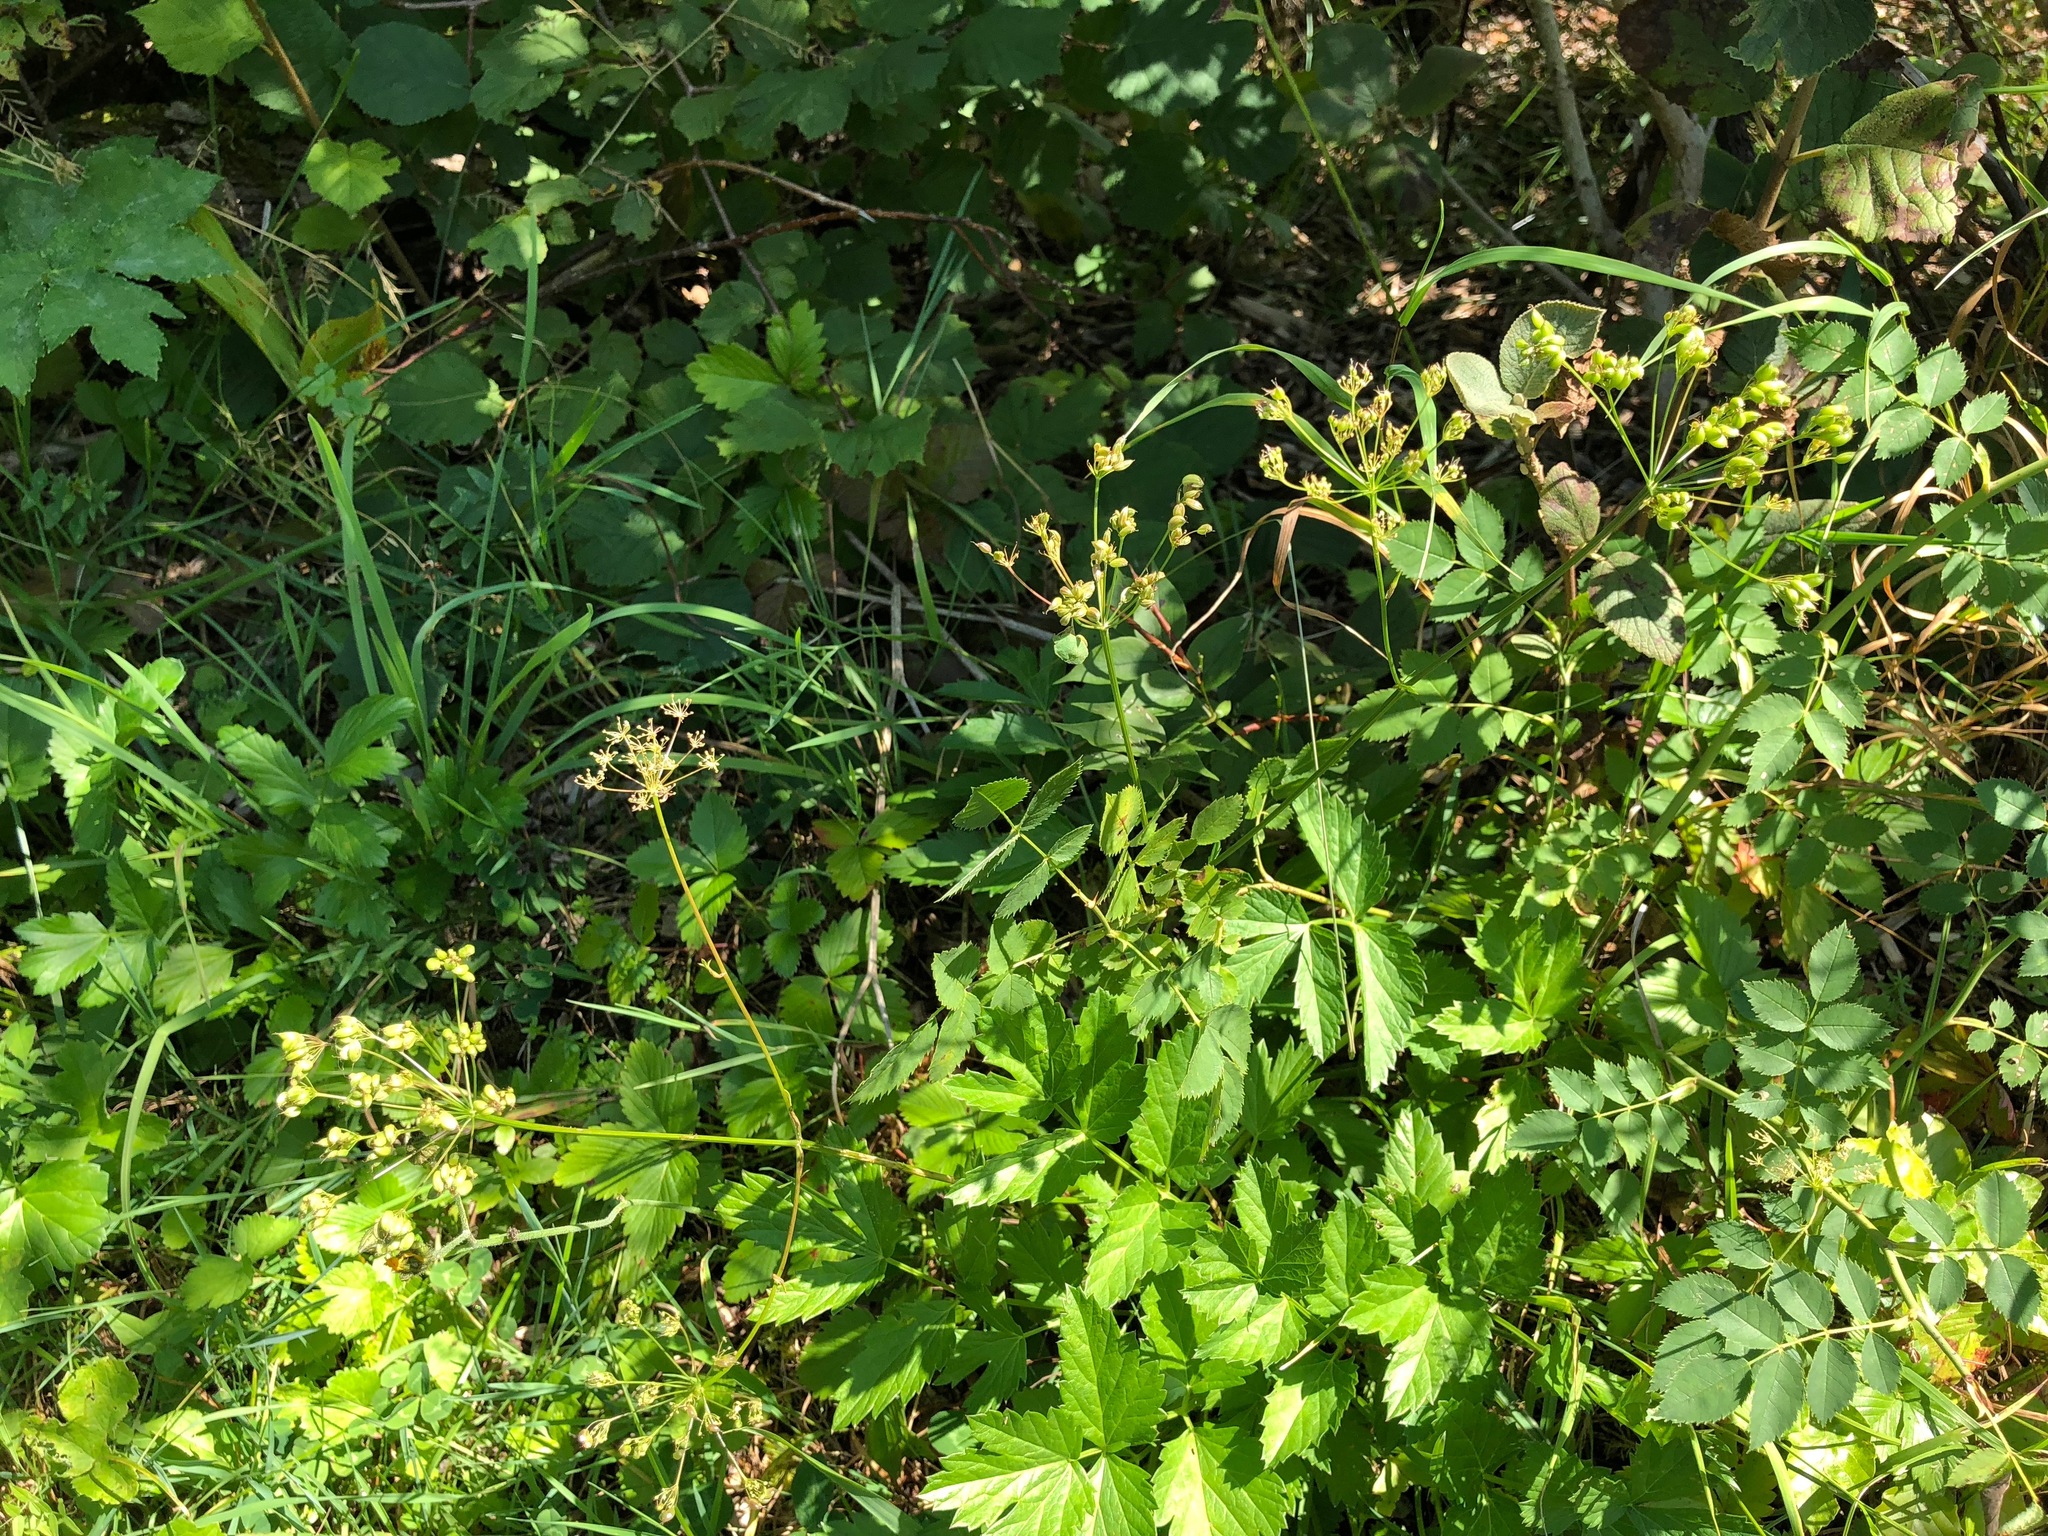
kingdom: Plantae
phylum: Tracheophyta
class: Magnoliopsida
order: Apiales
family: Apiaceae
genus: Pimpinella
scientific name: Pimpinella major
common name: Greater burnet-saxifrage
